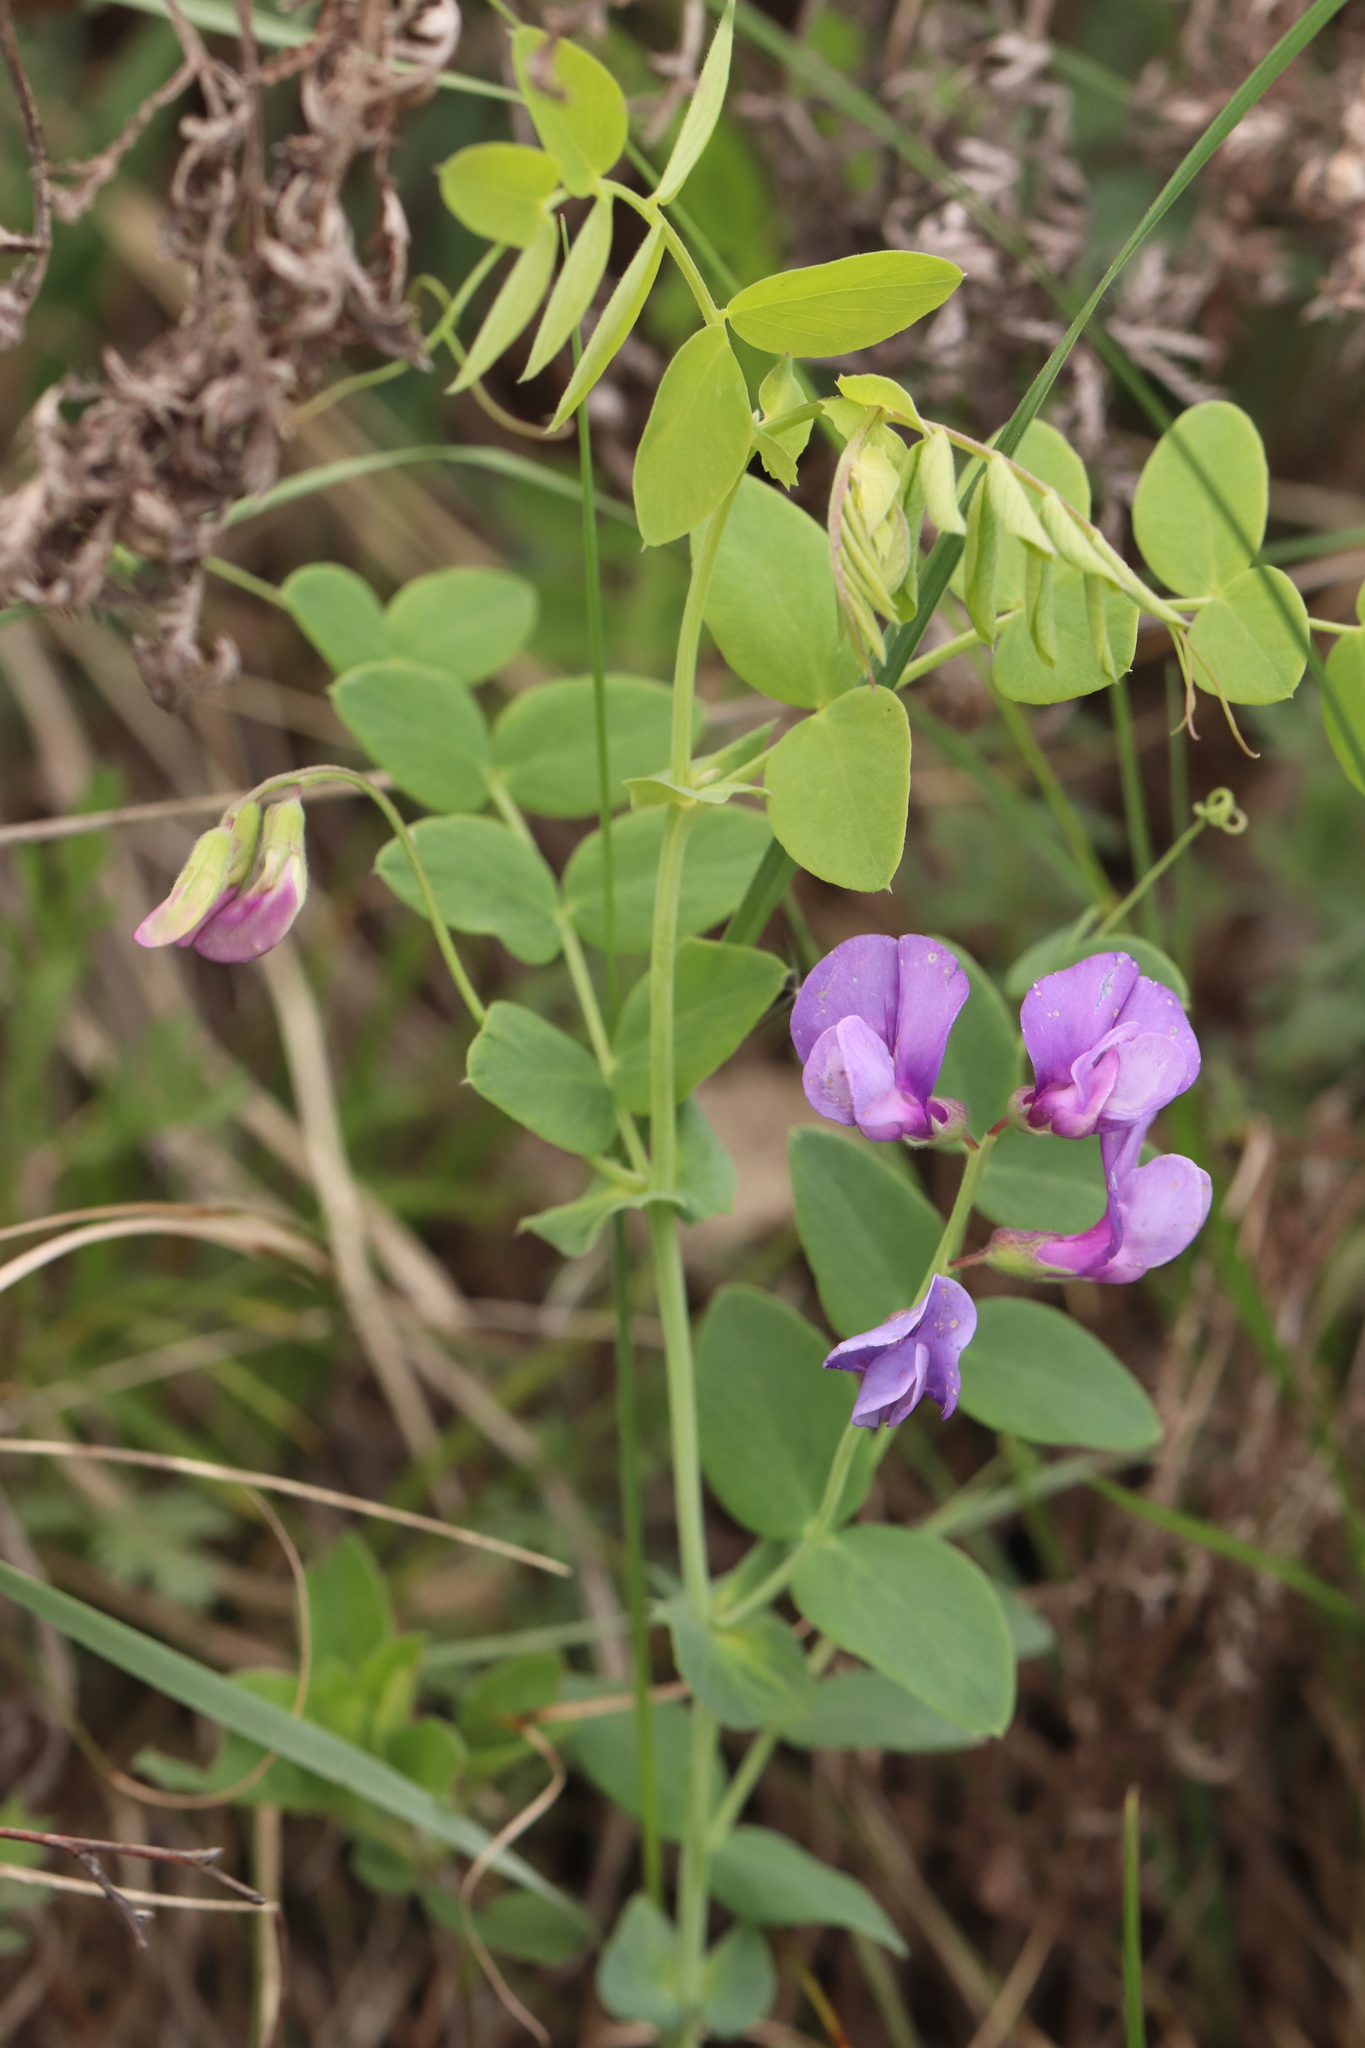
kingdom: Plantae
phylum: Tracheophyta
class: Magnoliopsida
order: Fabales
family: Fabaceae
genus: Lathyrus
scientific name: Lathyrus humilis
